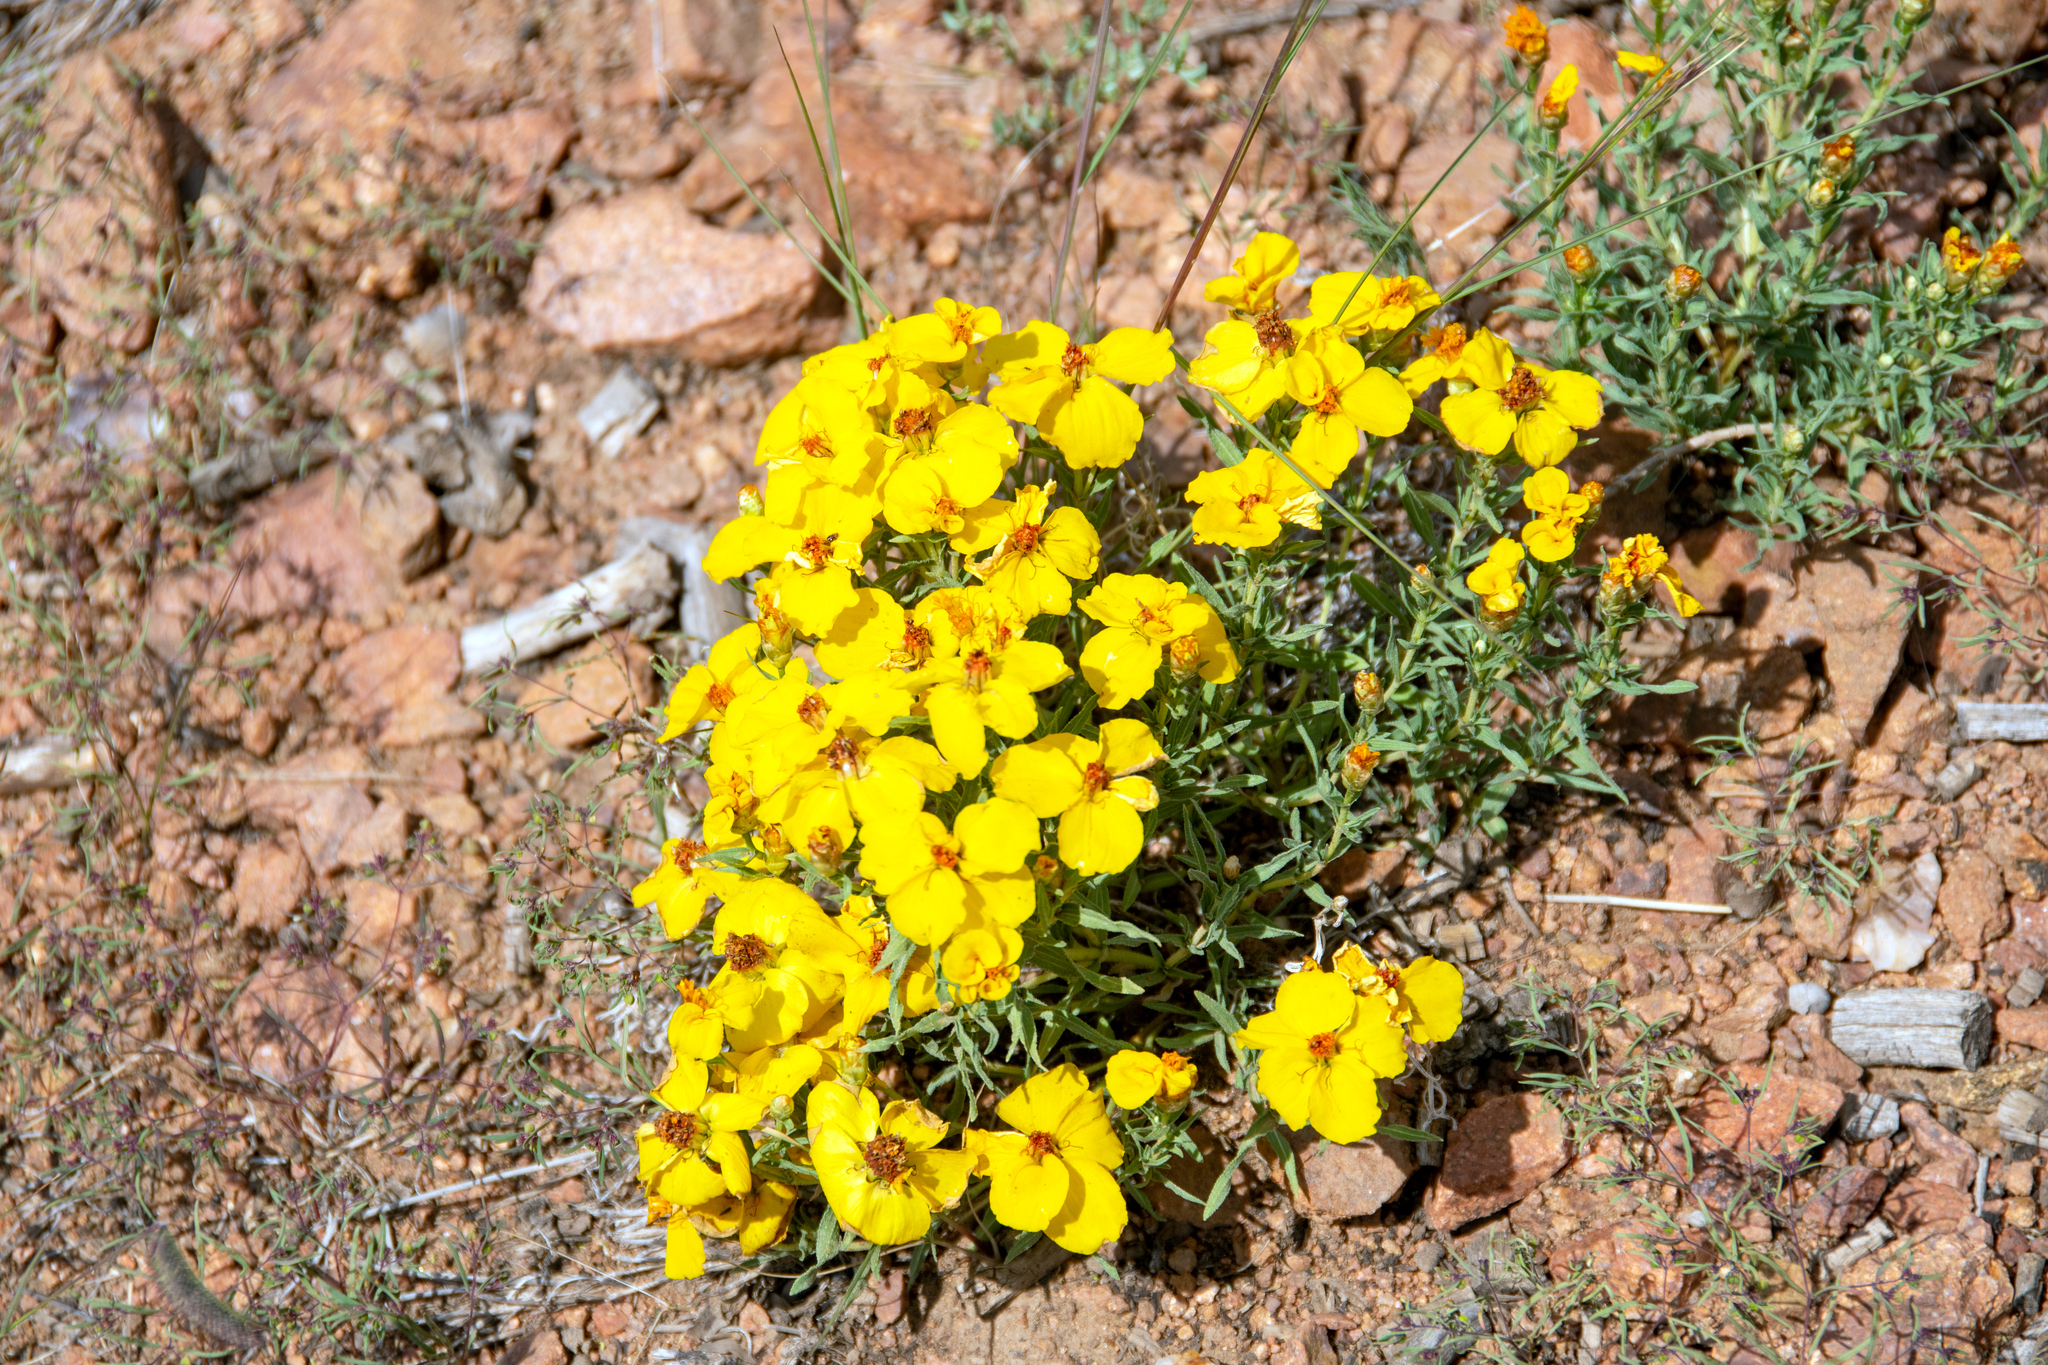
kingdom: Plantae
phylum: Tracheophyta
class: Magnoliopsida
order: Asterales
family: Asteraceae
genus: Zinnia
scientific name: Zinnia grandiflora
